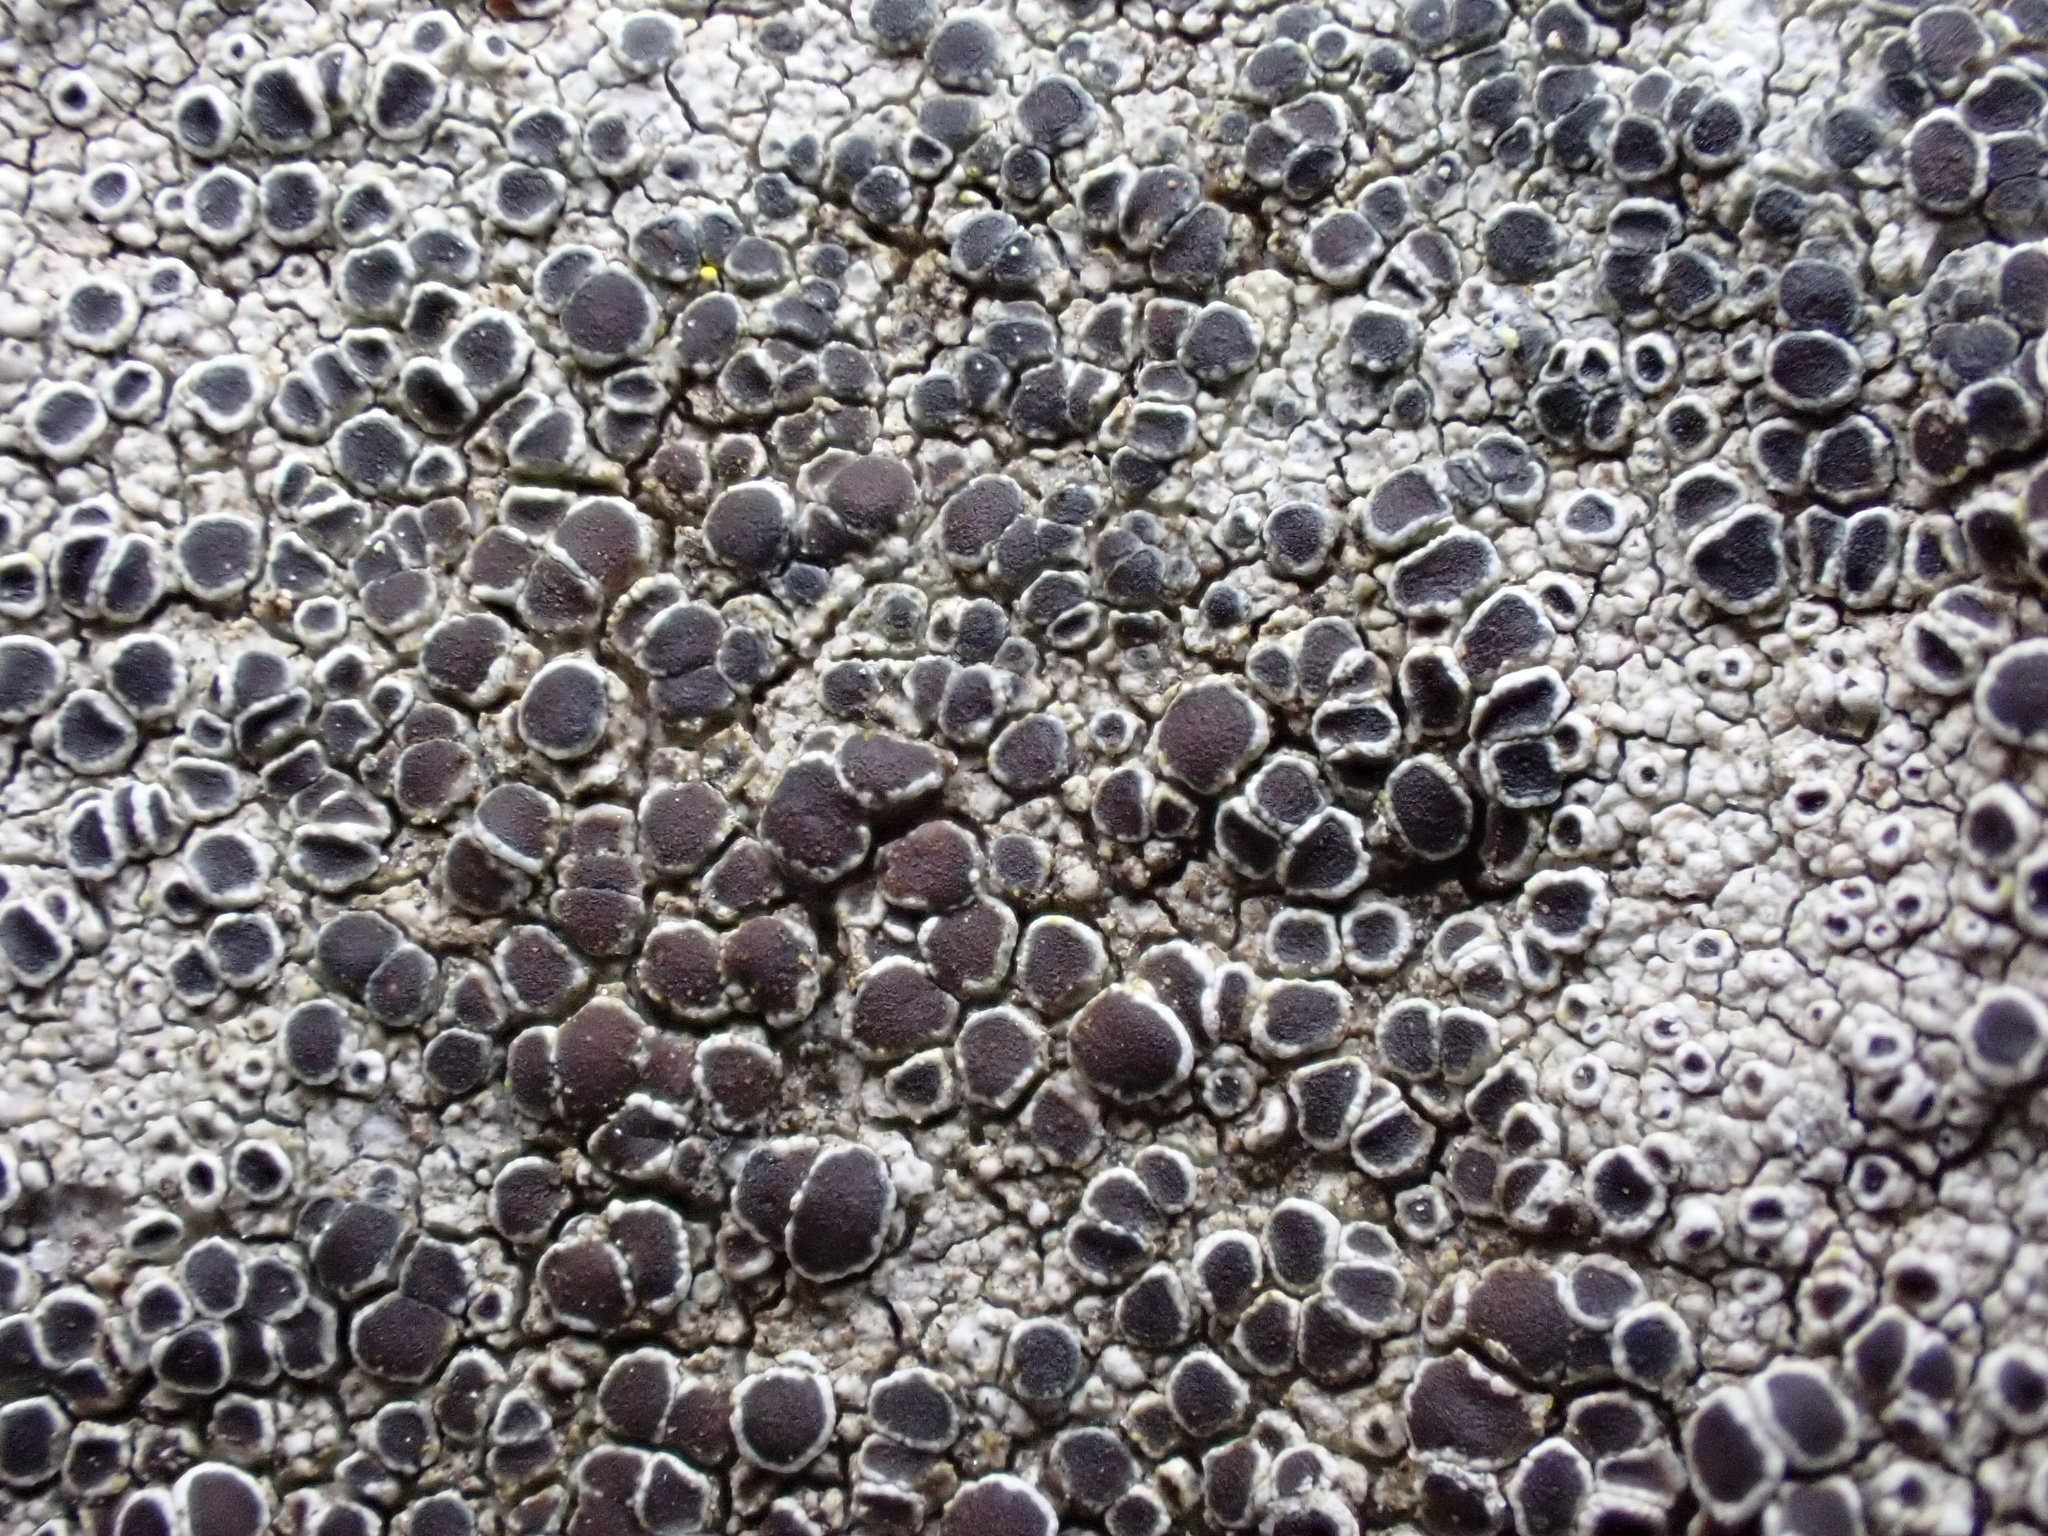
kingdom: Fungi
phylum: Ascomycota
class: Lecanoromycetes
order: Lecanorales
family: Lecanoraceae
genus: Lecanora
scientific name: Lecanora campestris
